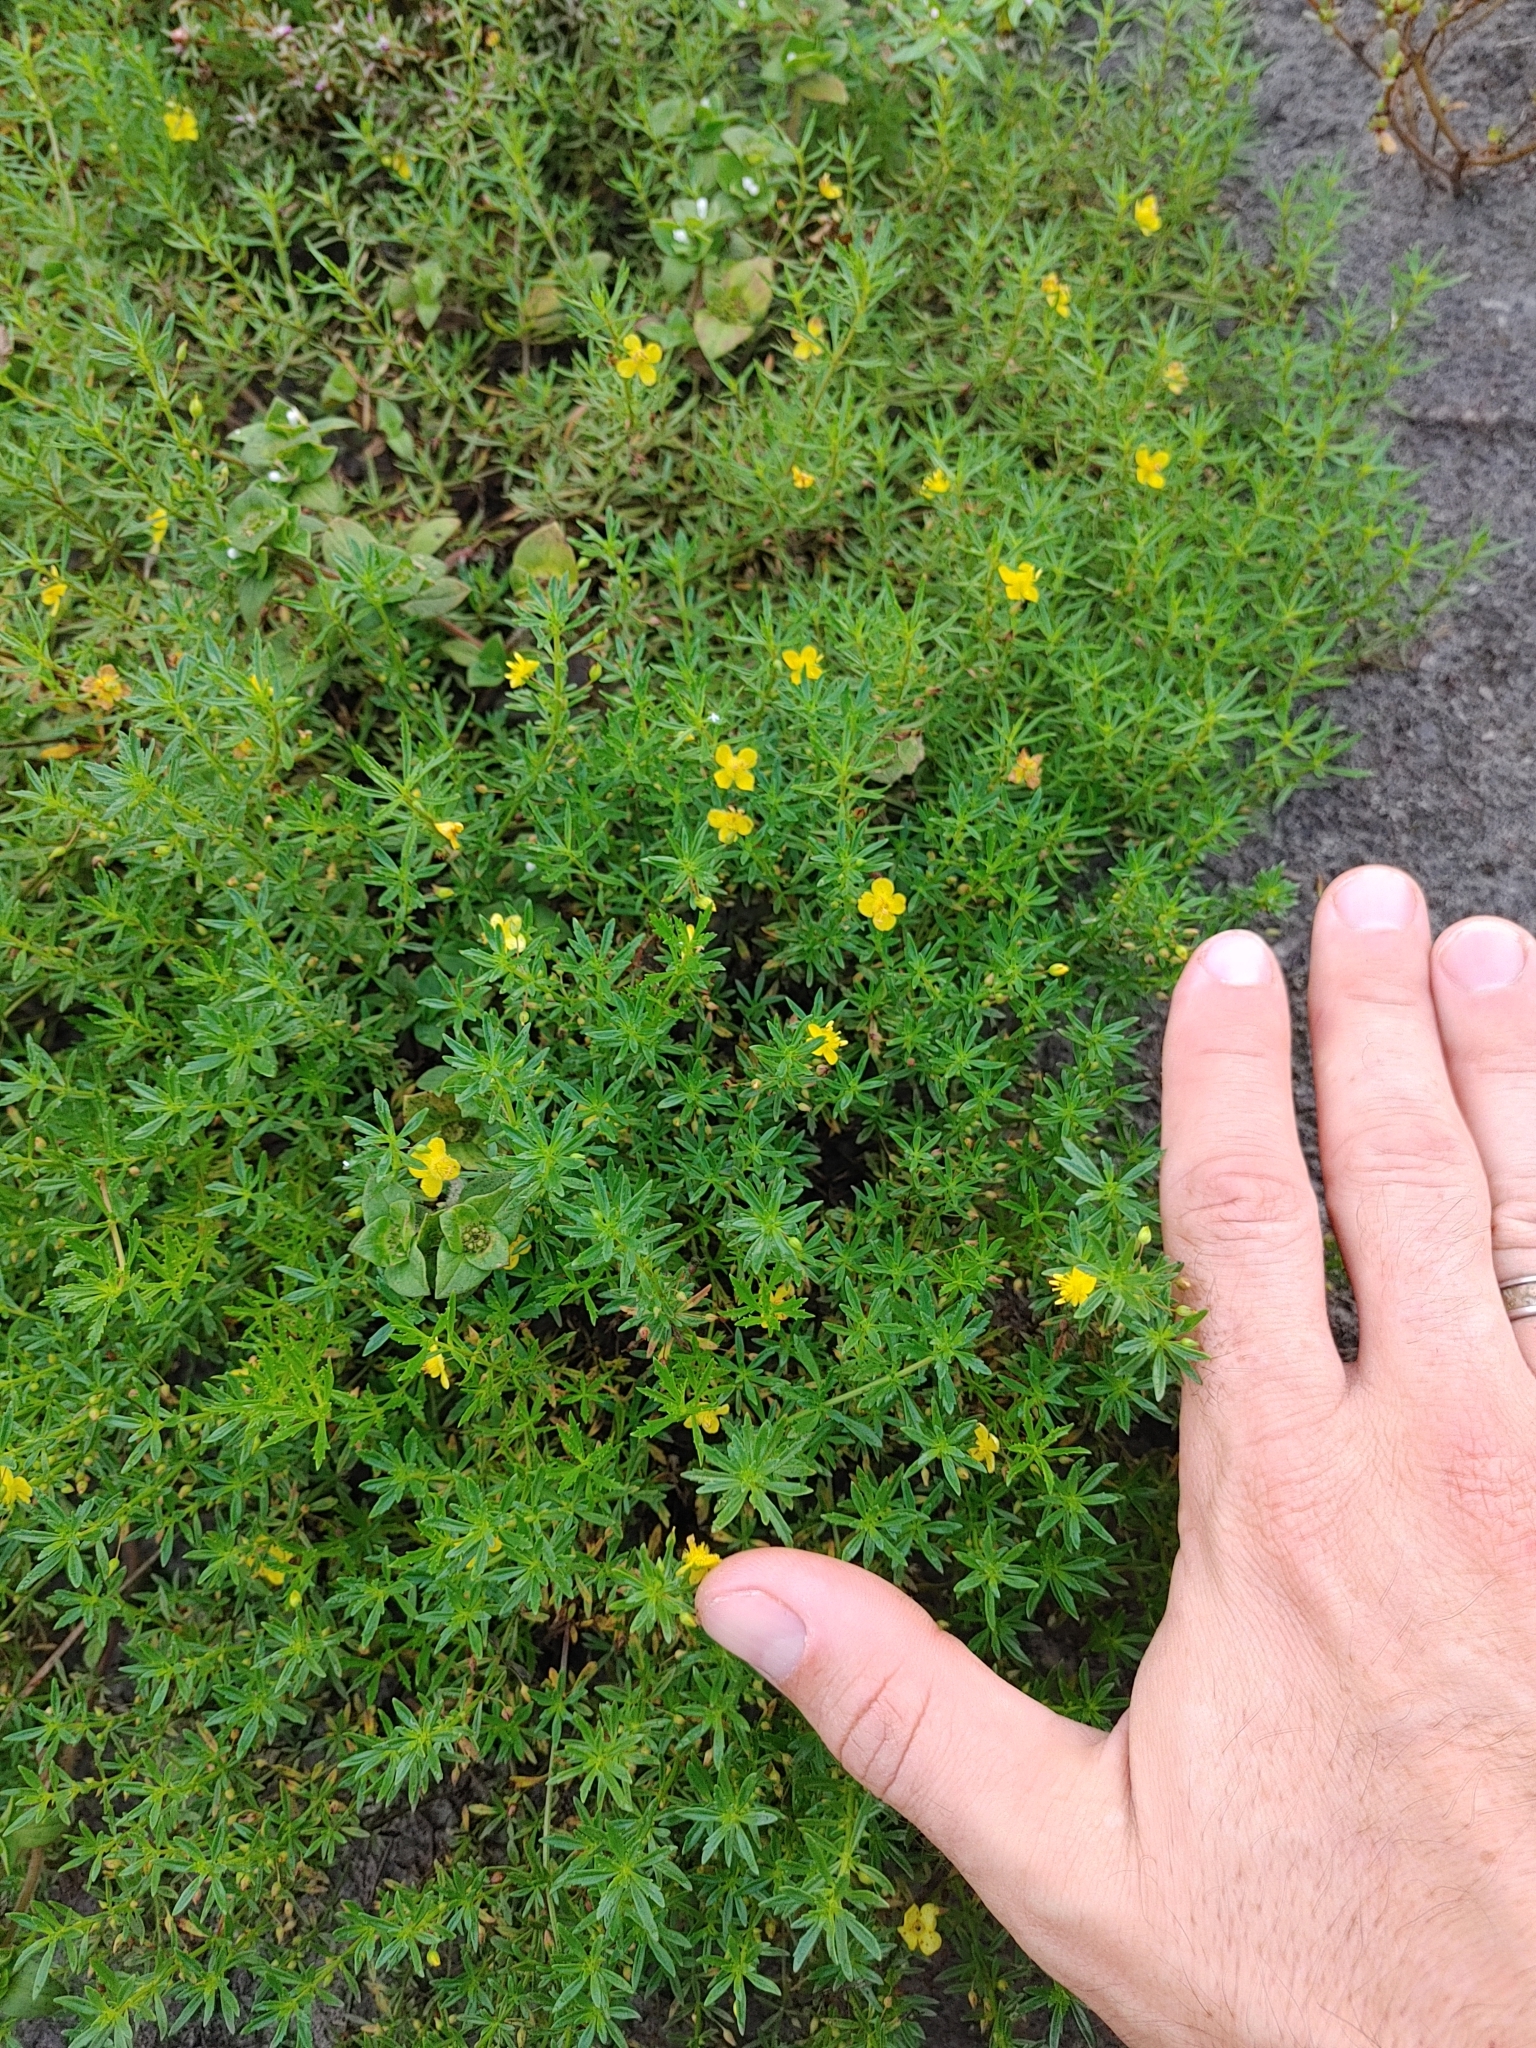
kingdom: Plantae
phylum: Tracheophyta
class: Magnoliopsida
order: Lamiales
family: Plantaginaceae
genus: Scoparia
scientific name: Scoparia montevidensis
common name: Broomwort
